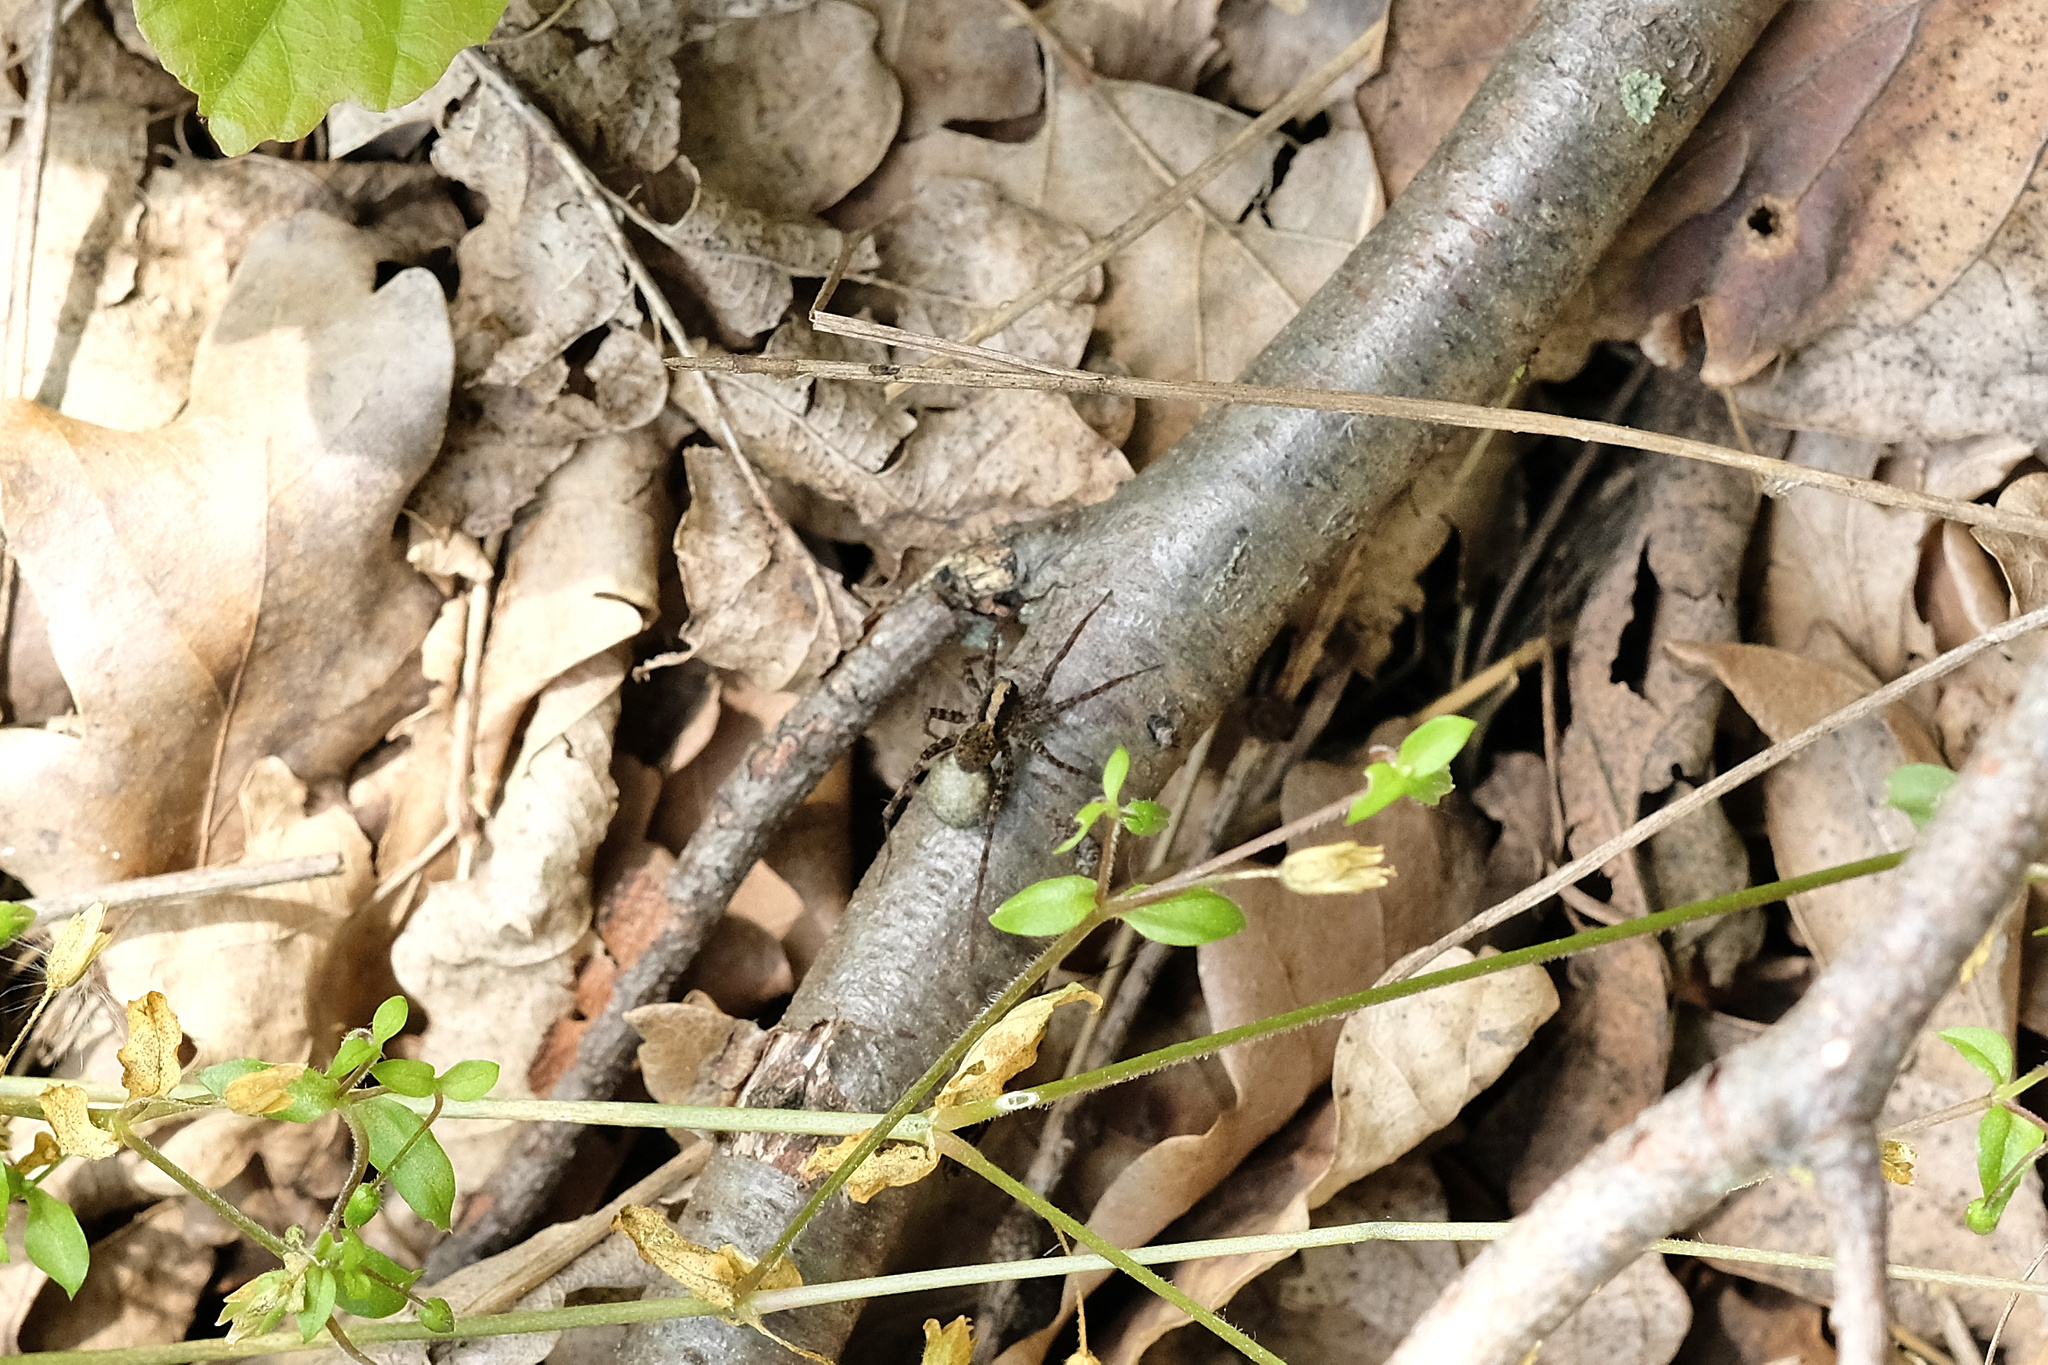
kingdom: Animalia
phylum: Arthropoda
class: Arachnida
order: Araneae
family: Lycosidae
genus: Pardosa
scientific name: Pardosa
